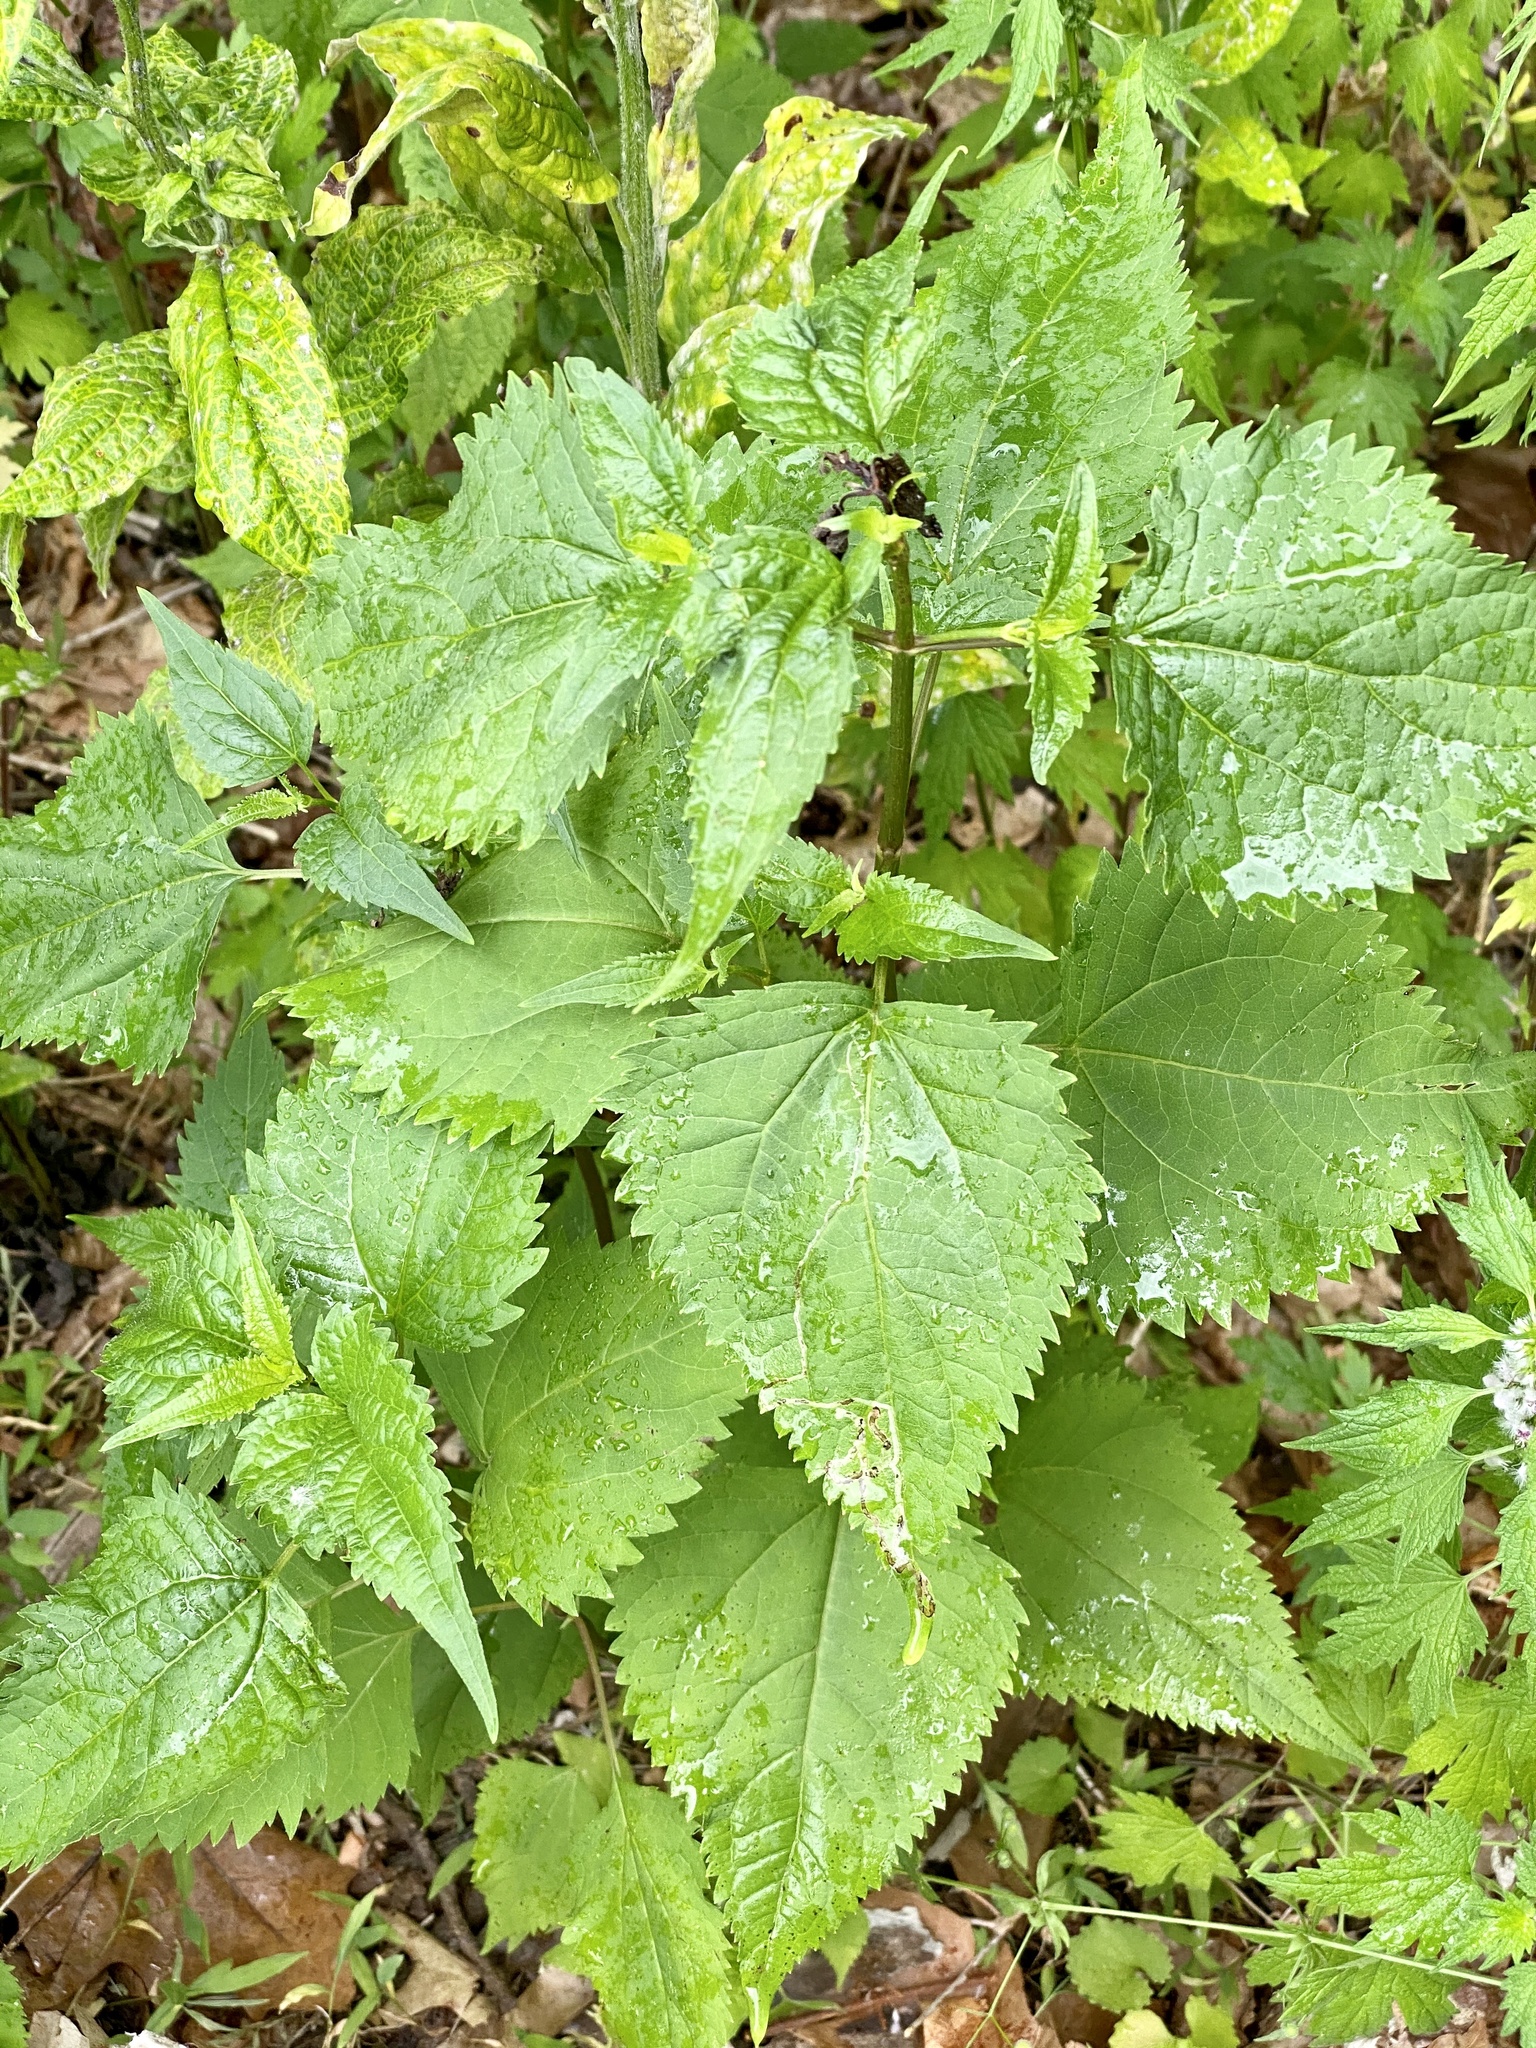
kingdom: Plantae
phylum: Tracheophyta
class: Magnoliopsida
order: Asterales
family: Asteraceae
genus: Ageratina
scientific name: Ageratina altissima
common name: White snakeroot
